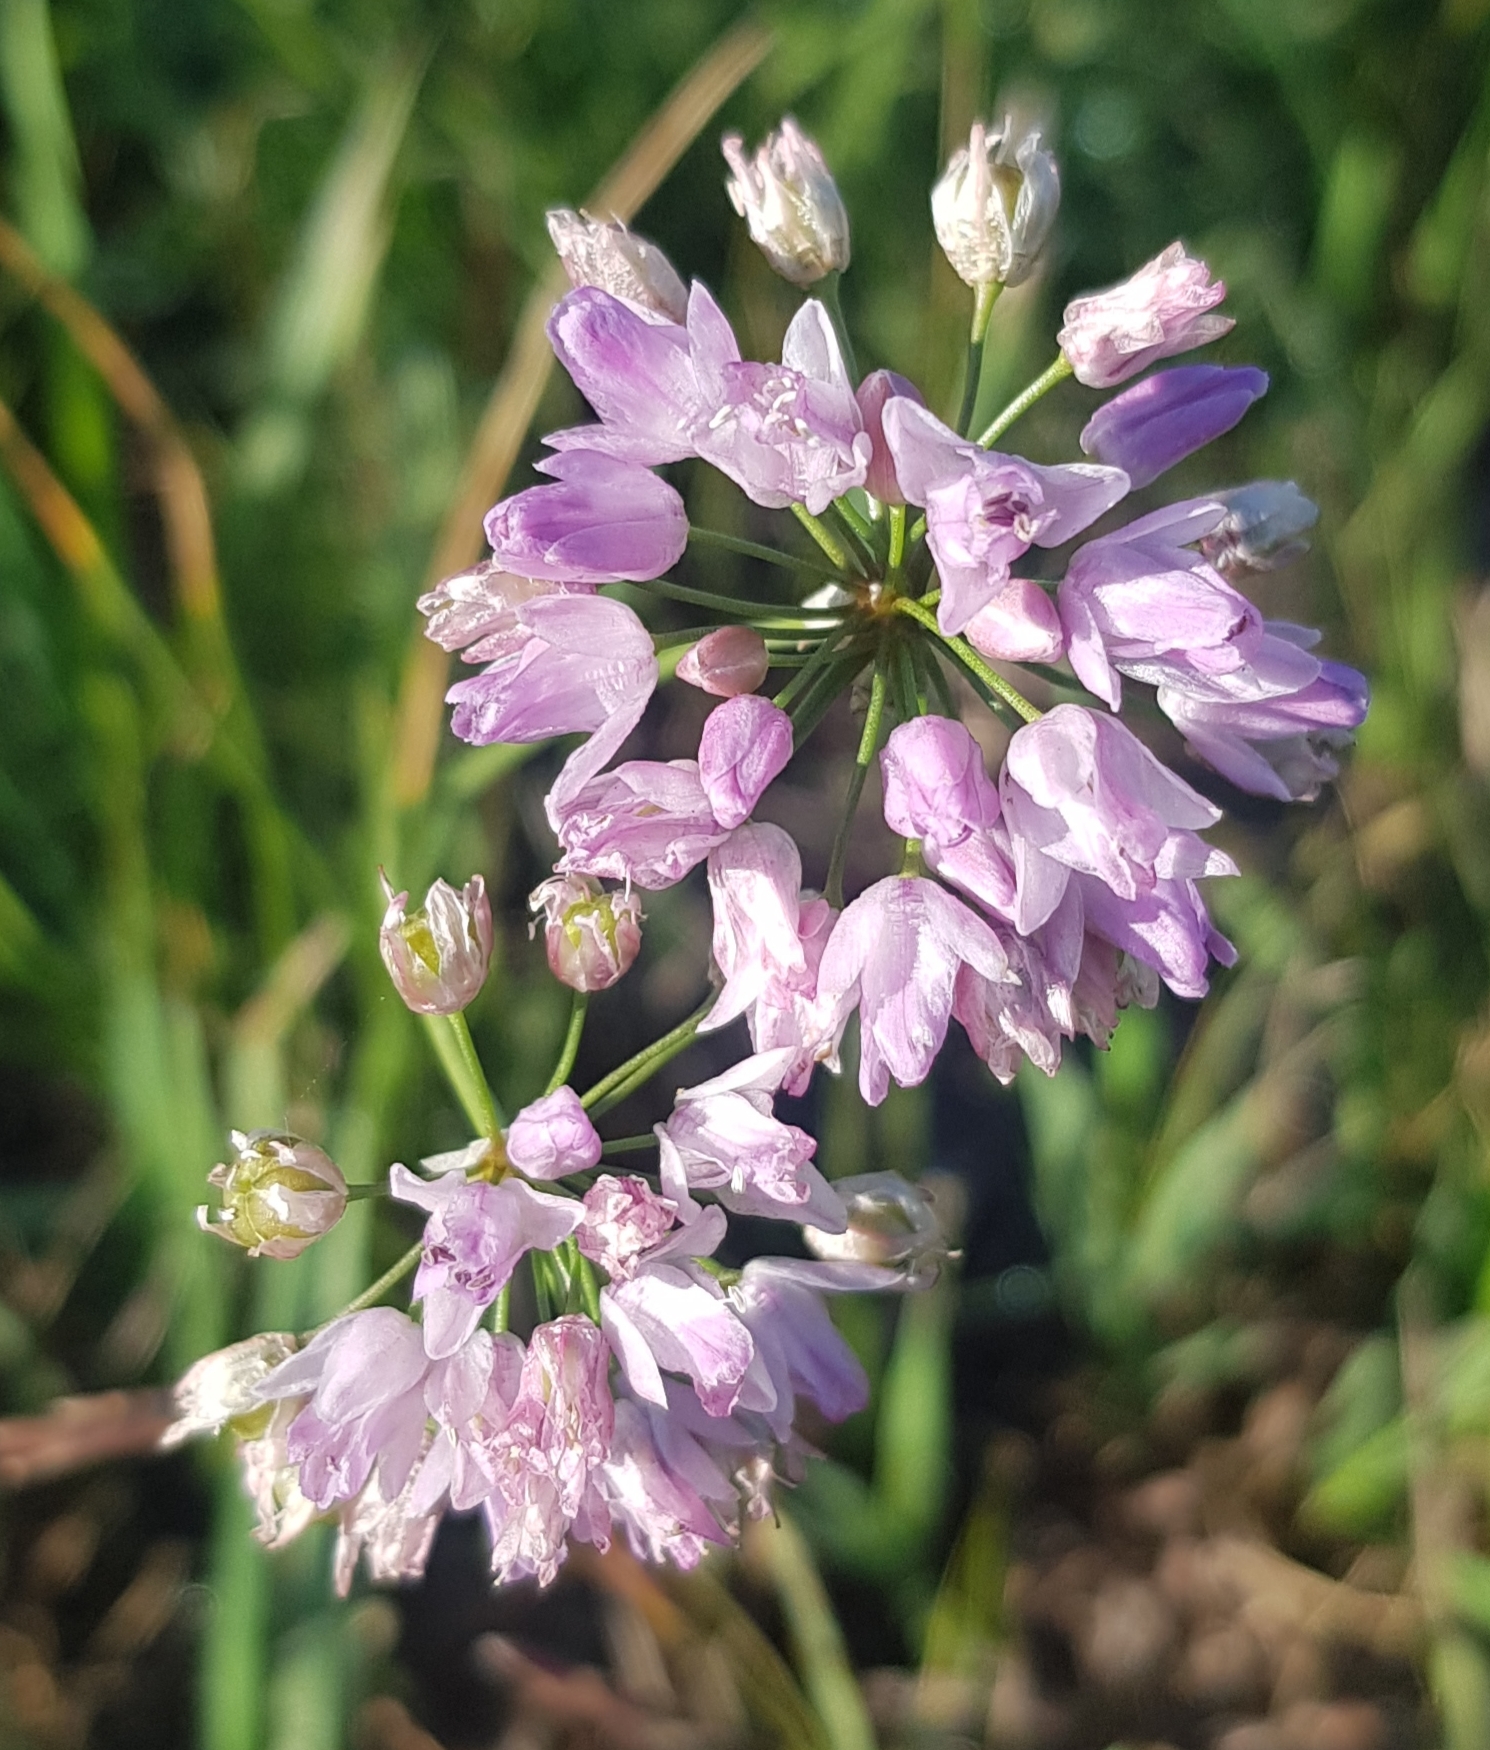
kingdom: Plantae
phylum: Tracheophyta
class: Liliopsida
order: Asparagales
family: Amaryllidaceae
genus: Allium
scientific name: Allium bidentatum
